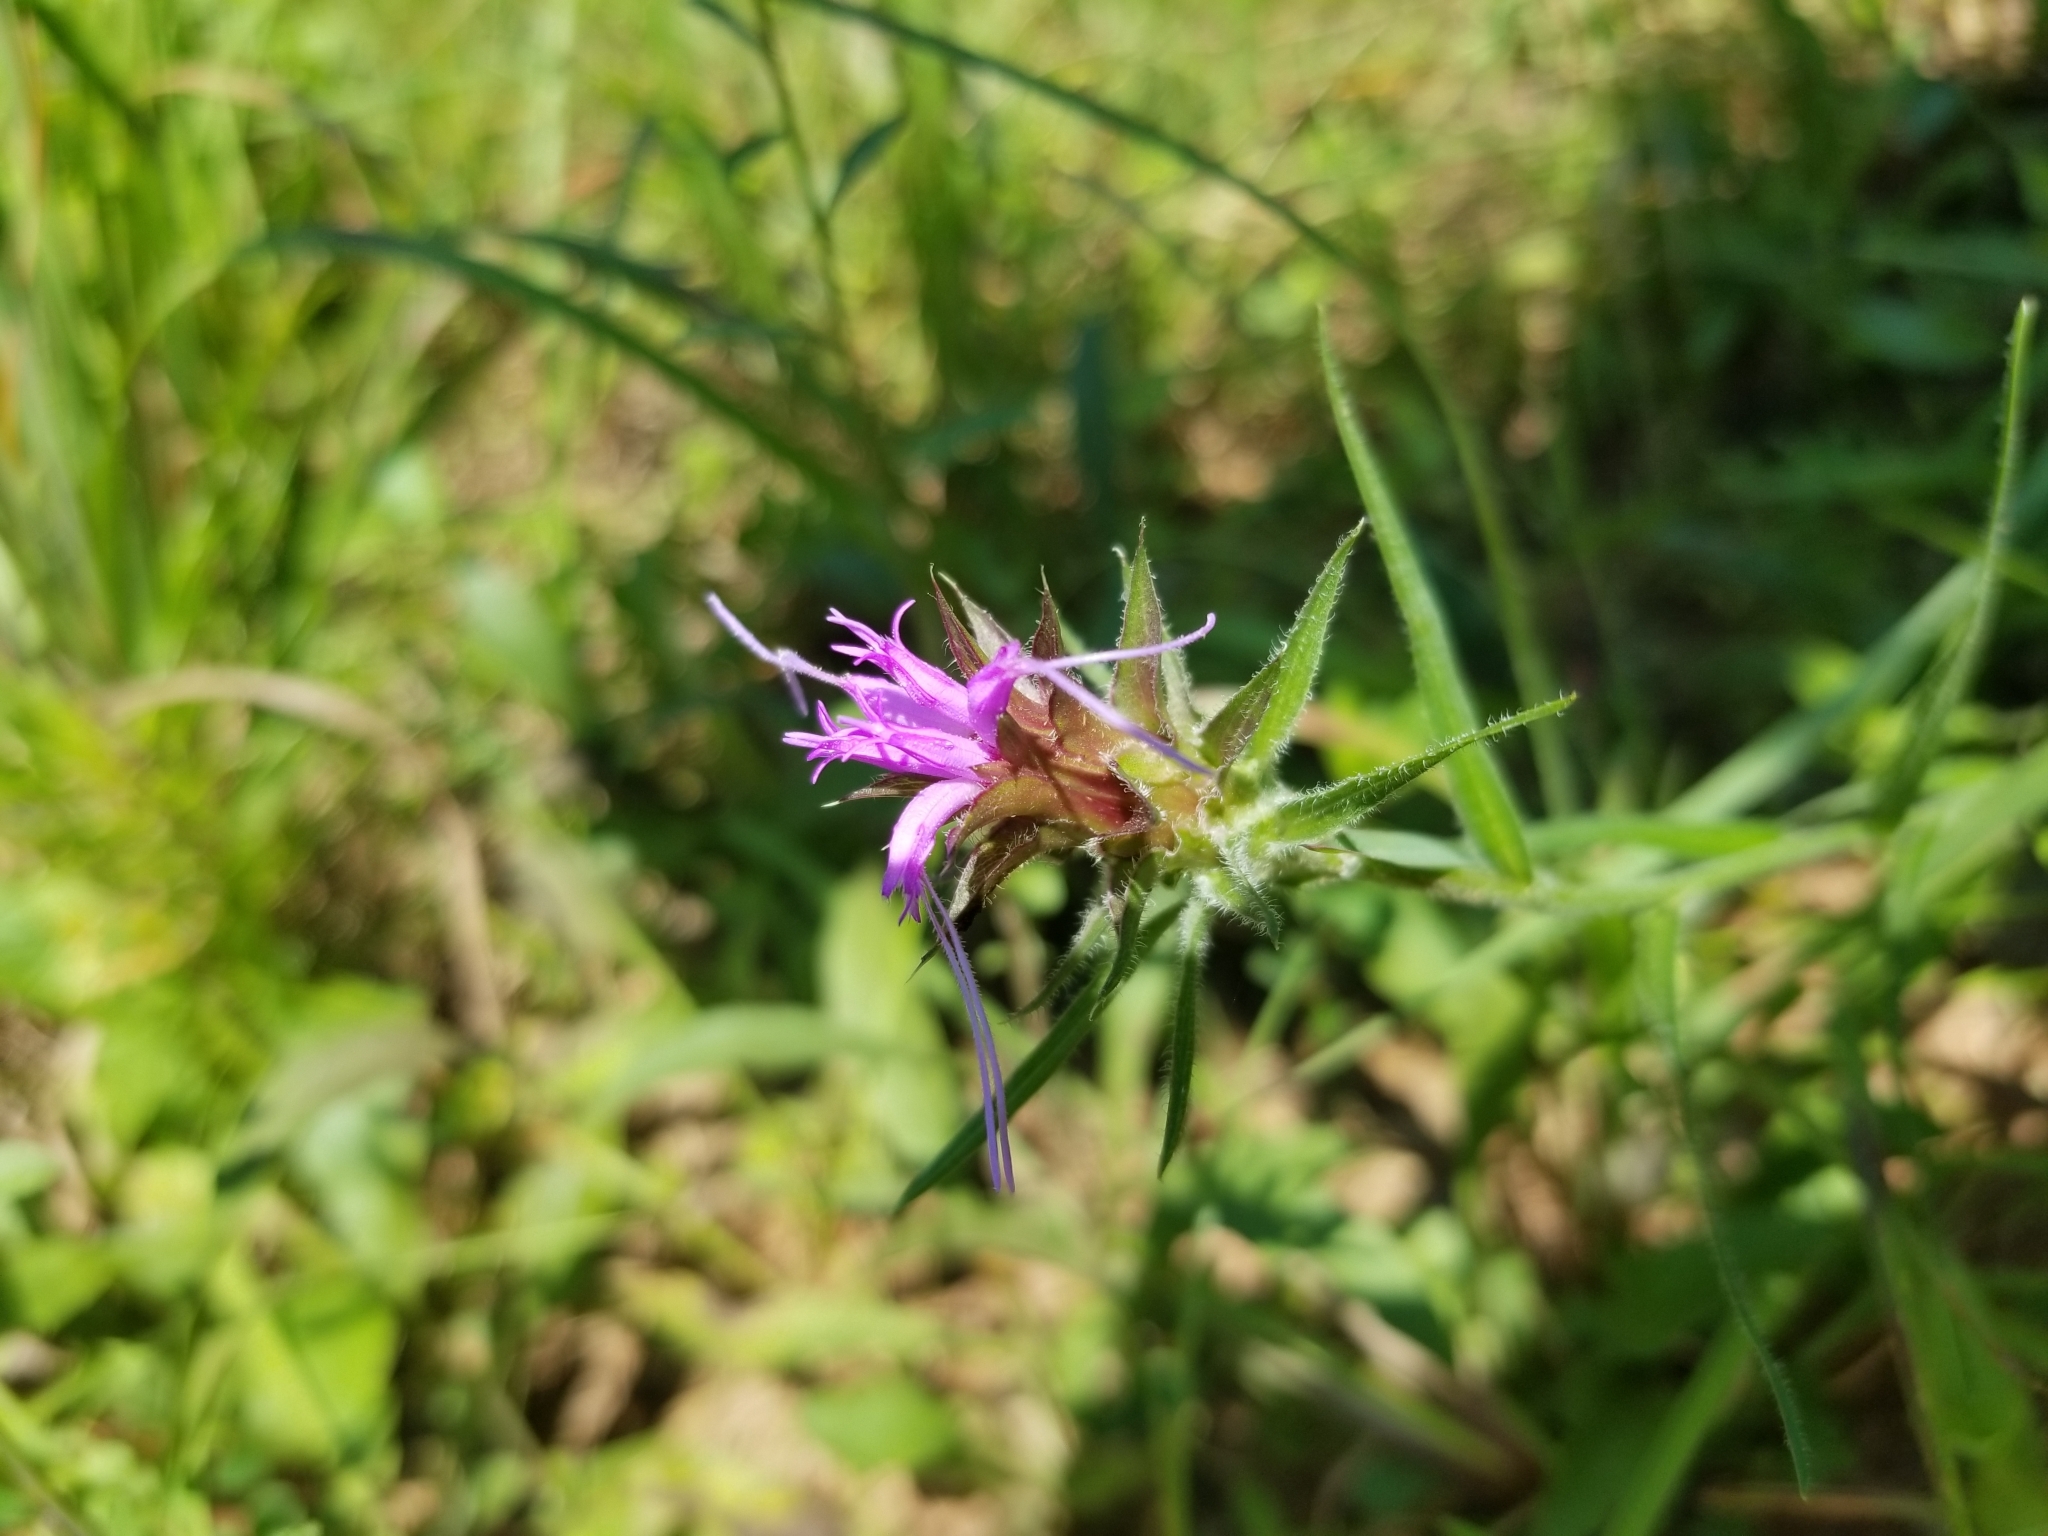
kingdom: Plantae
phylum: Tracheophyta
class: Magnoliopsida
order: Asterales
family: Asteraceae
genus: Liatris
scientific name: Liatris squarrosa
